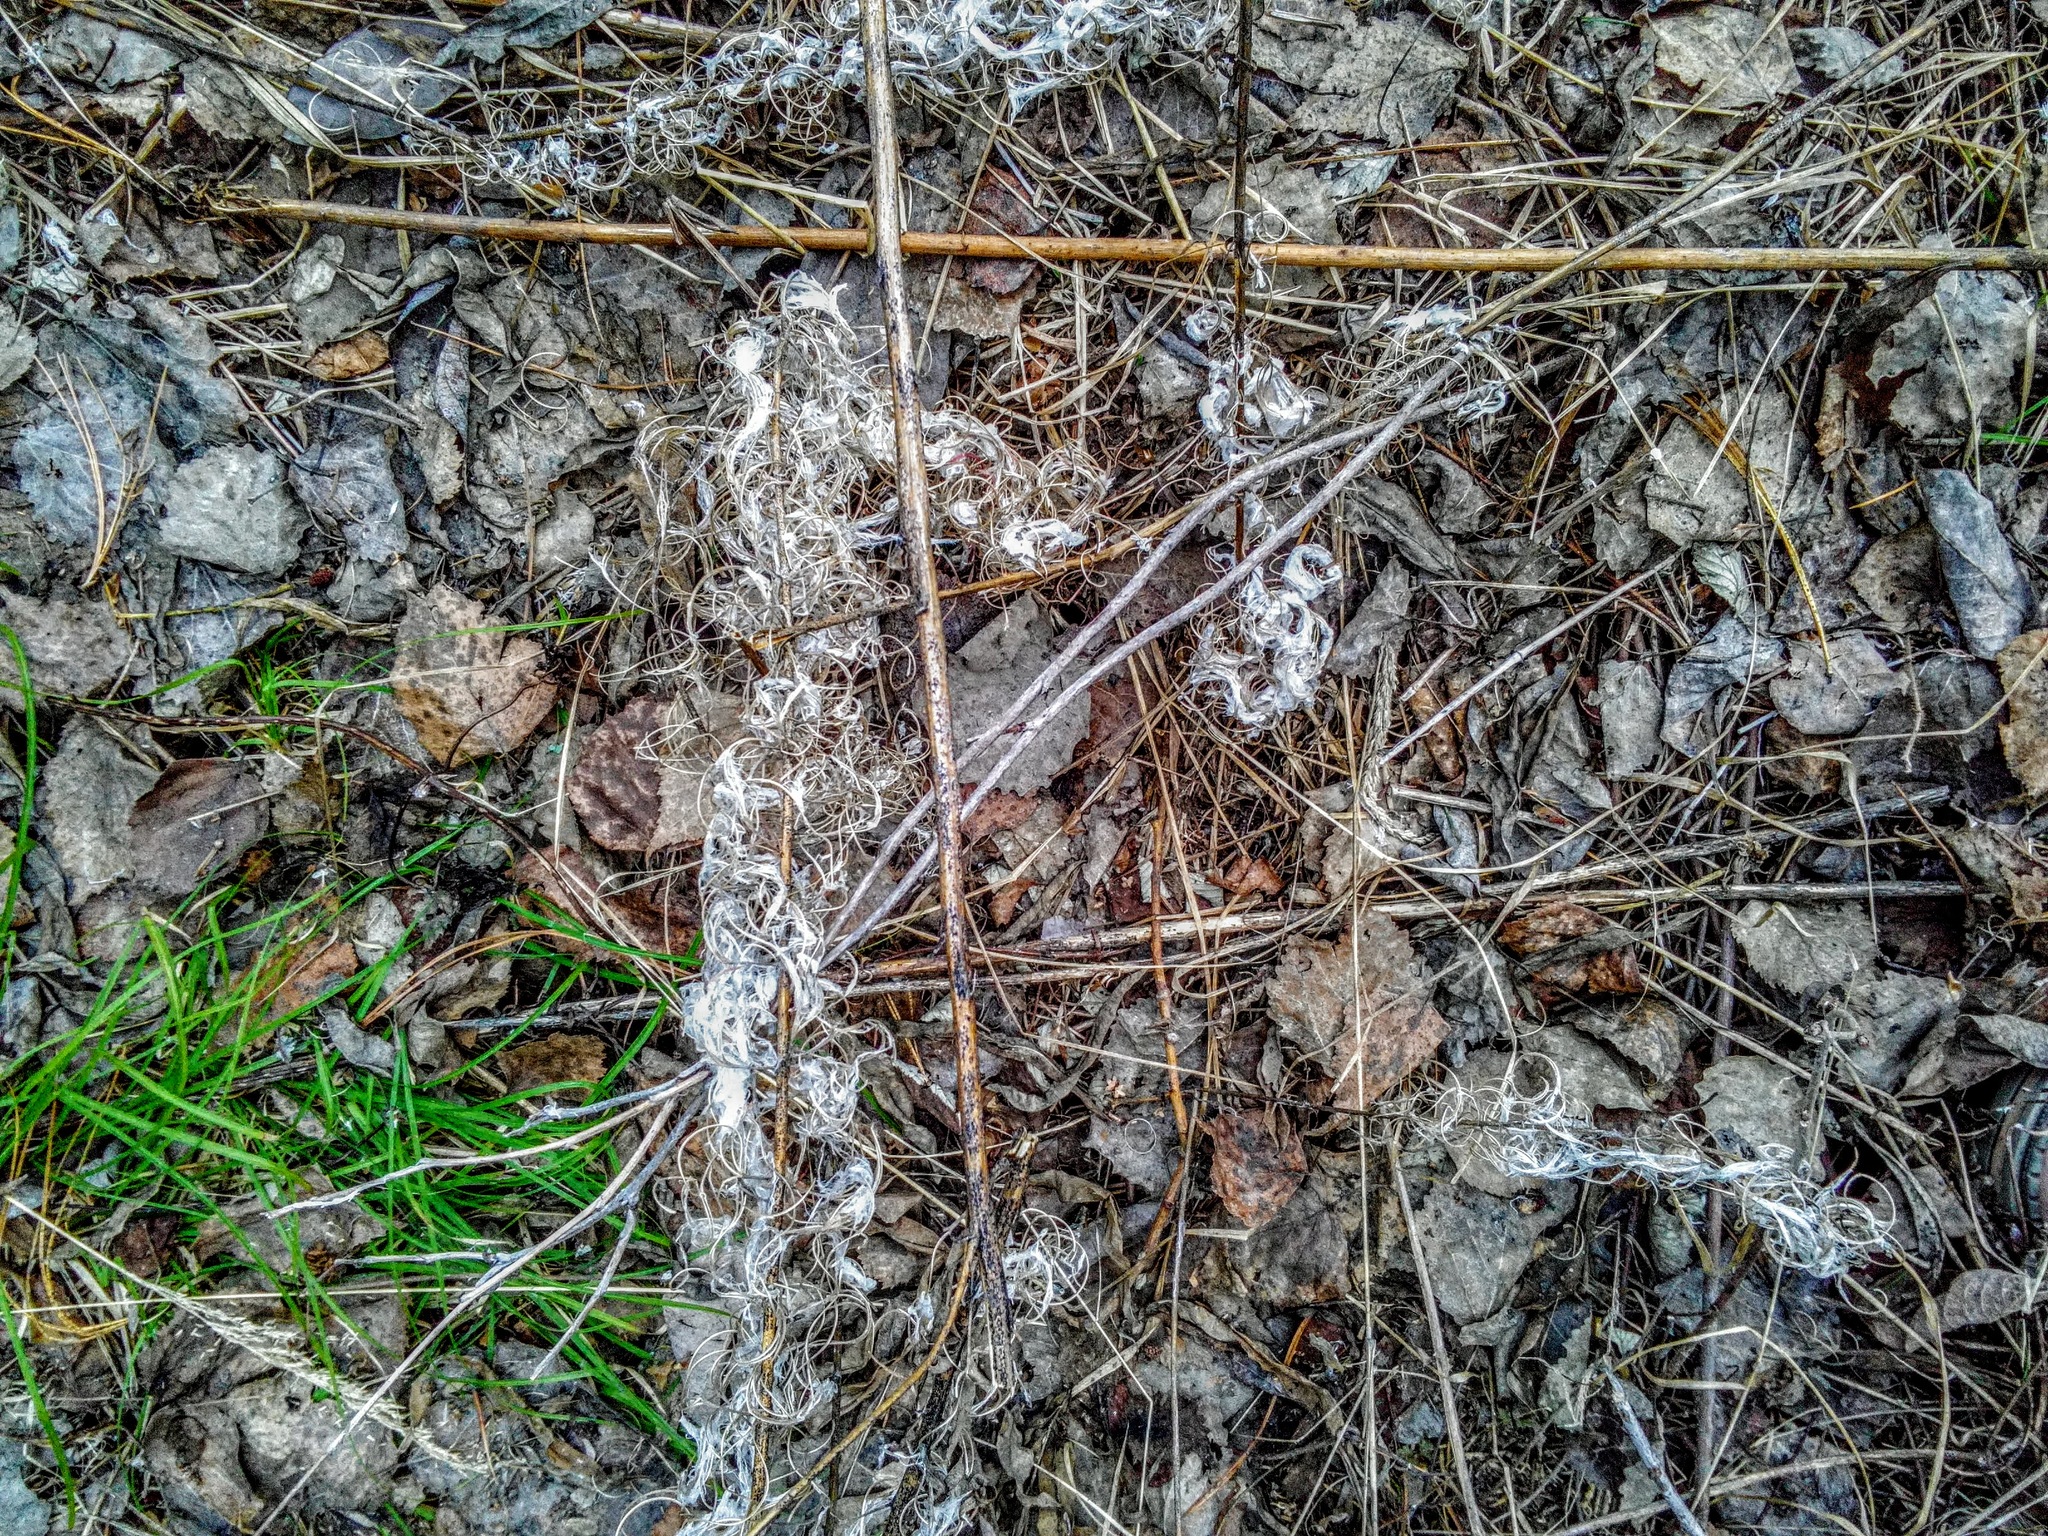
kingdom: Plantae
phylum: Tracheophyta
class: Magnoliopsida
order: Myrtales
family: Onagraceae
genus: Chamaenerion
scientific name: Chamaenerion angustifolium
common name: Fireweed
